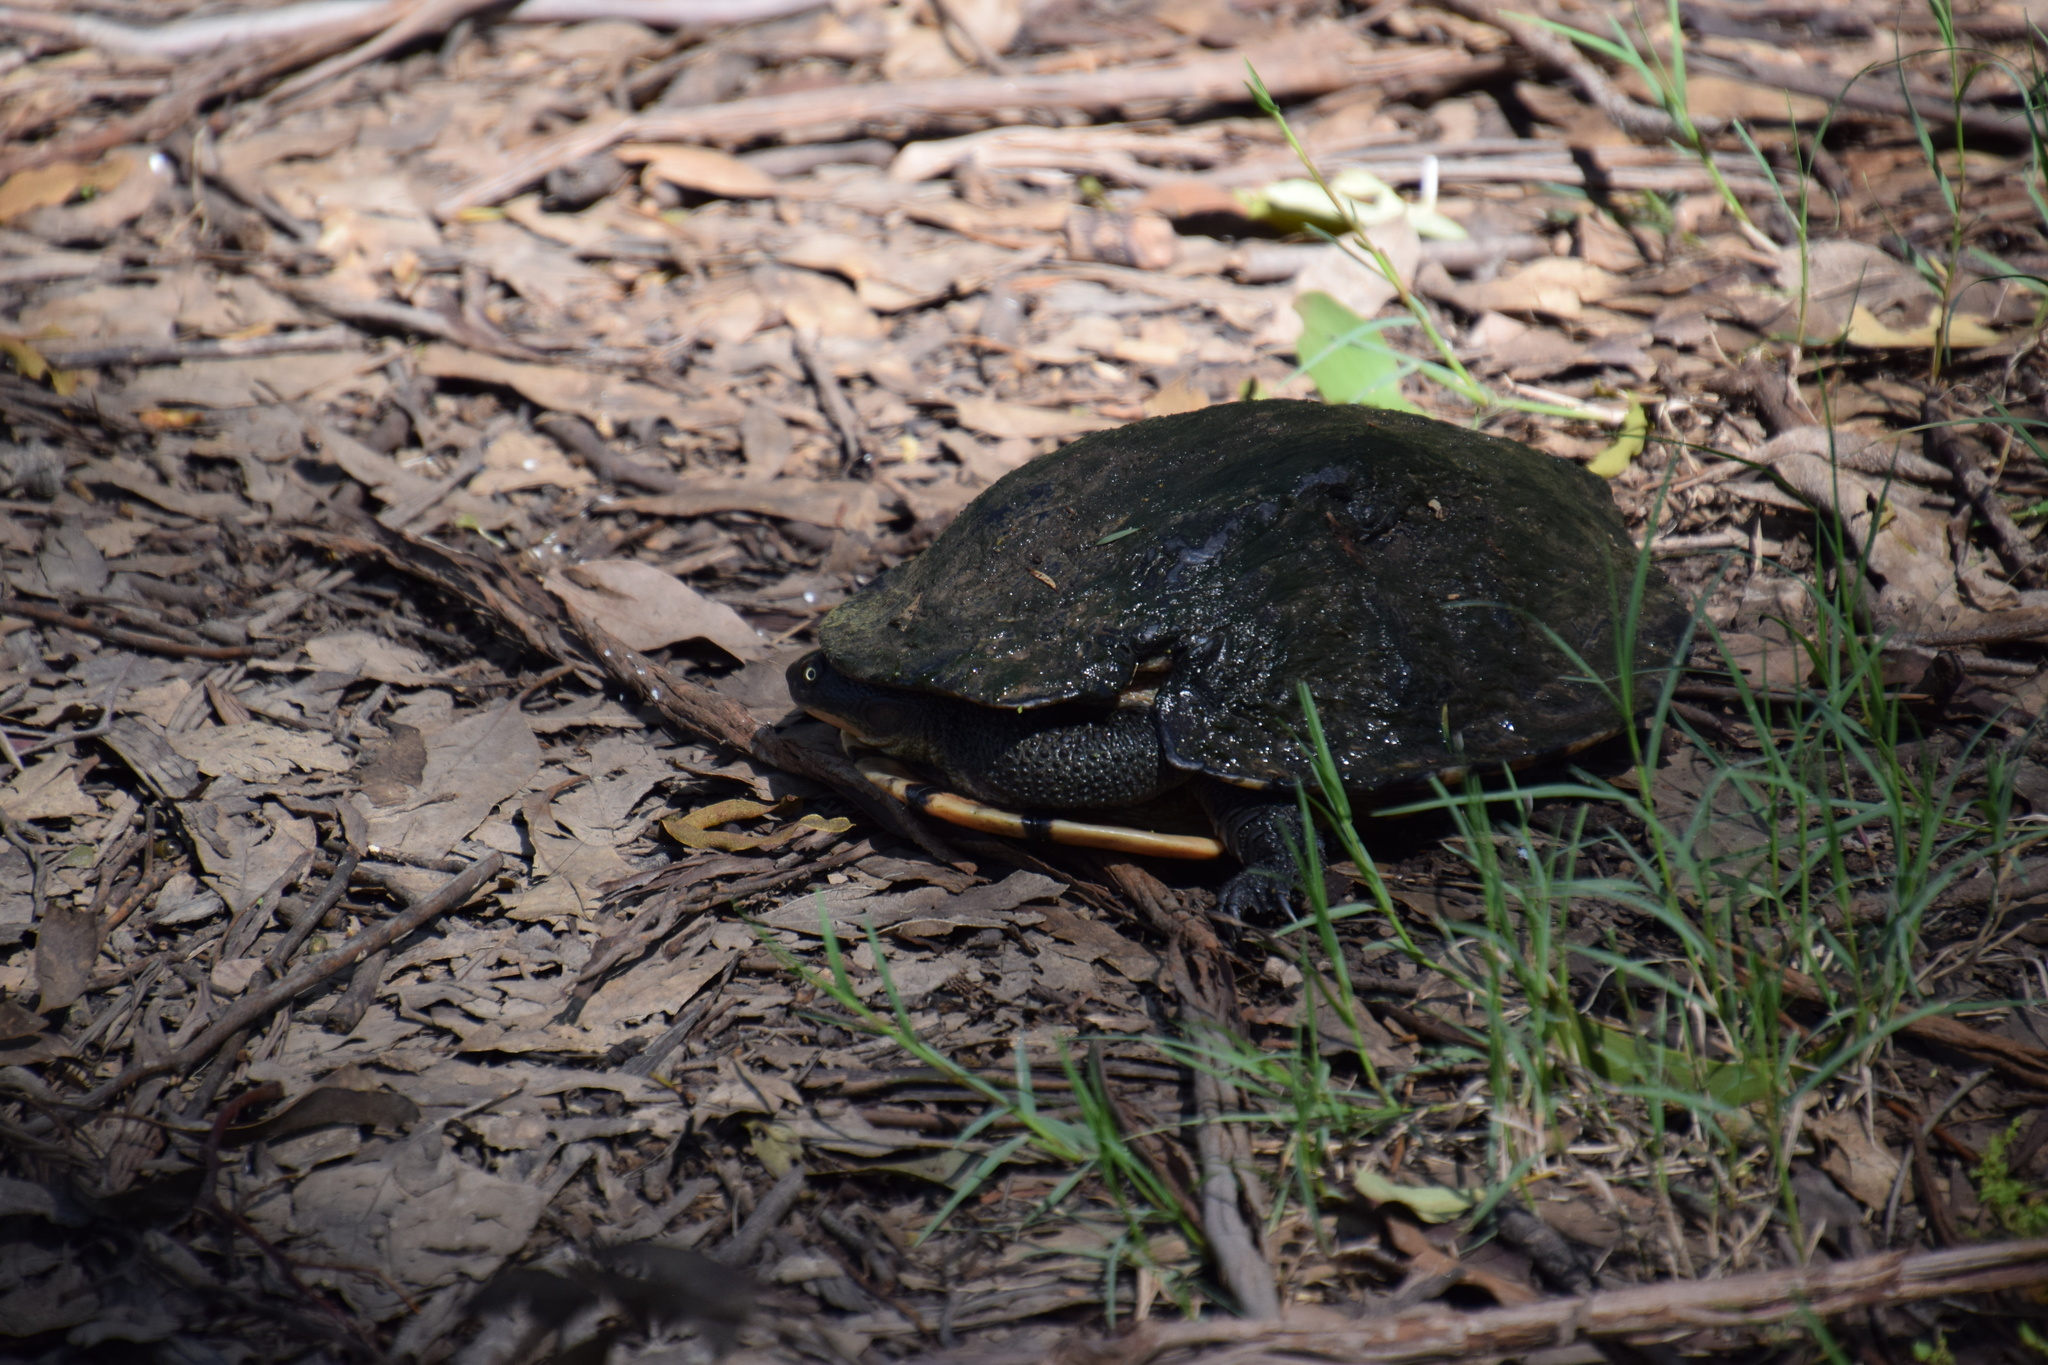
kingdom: Animalia
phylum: Chordata
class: Testudines
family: Chelidae
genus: Chelodina
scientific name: Chelodina longicollis
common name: Eastern snake-necked turtle
